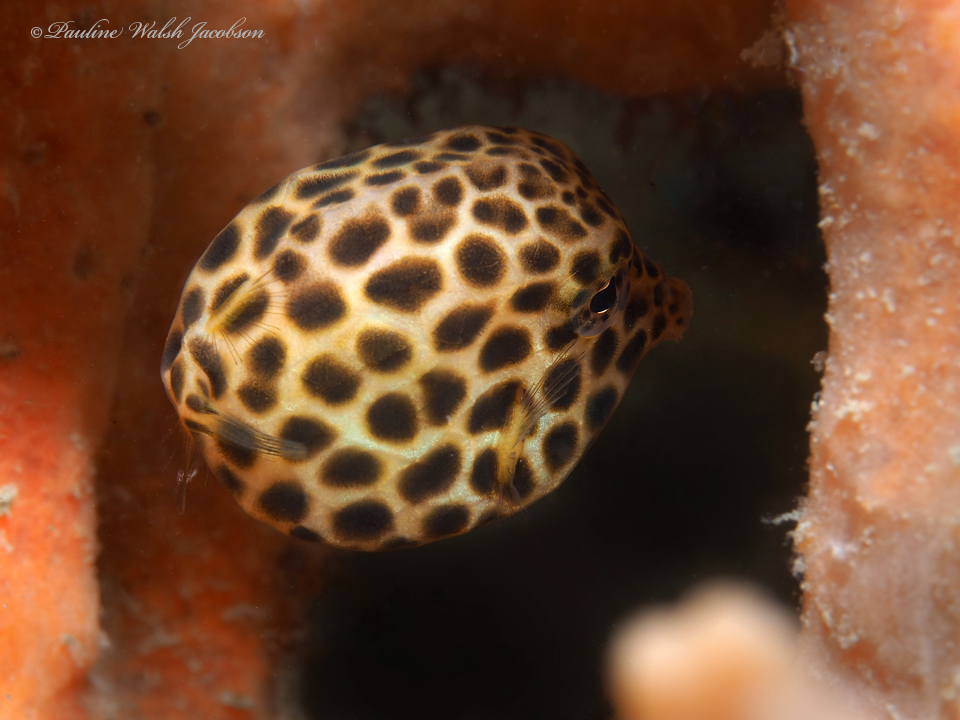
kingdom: Animalia
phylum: Chordata
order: Tetraodontiformes
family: Ostraciidae
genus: Lactophrys
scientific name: Lactophrys bicaudalis
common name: Spotted trunkfish
